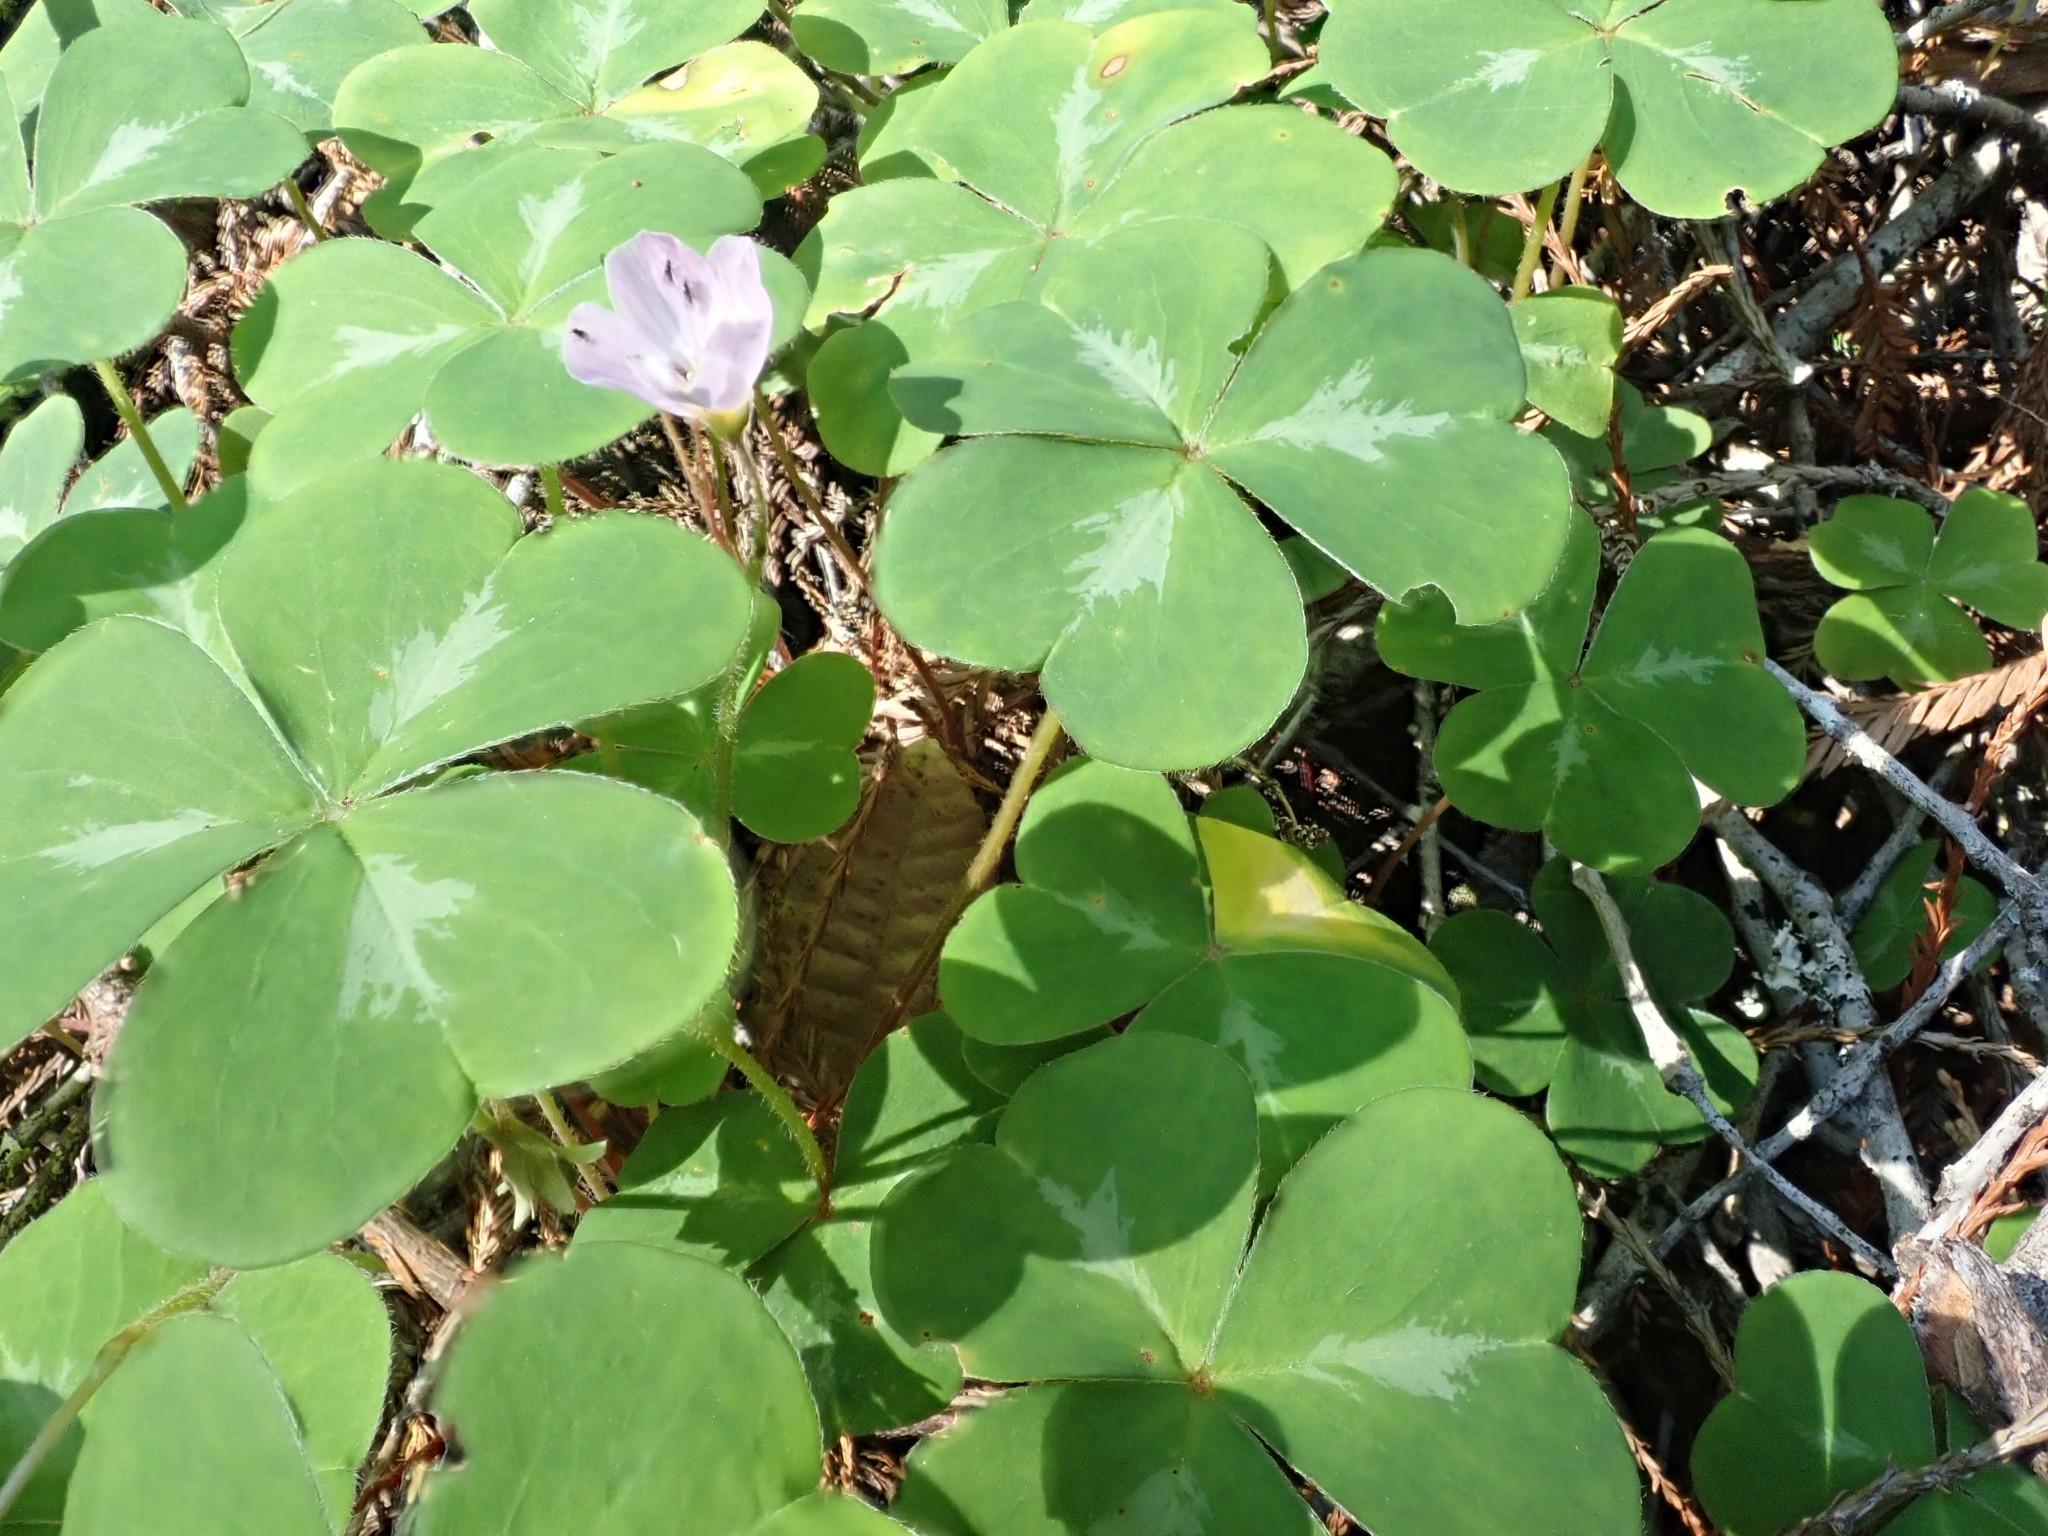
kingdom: Plantae
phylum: Tracheophyta
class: Magnoliopsida
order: Oxalidales
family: Oxalidaceae
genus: Oxalis
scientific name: Oxalis oregana
